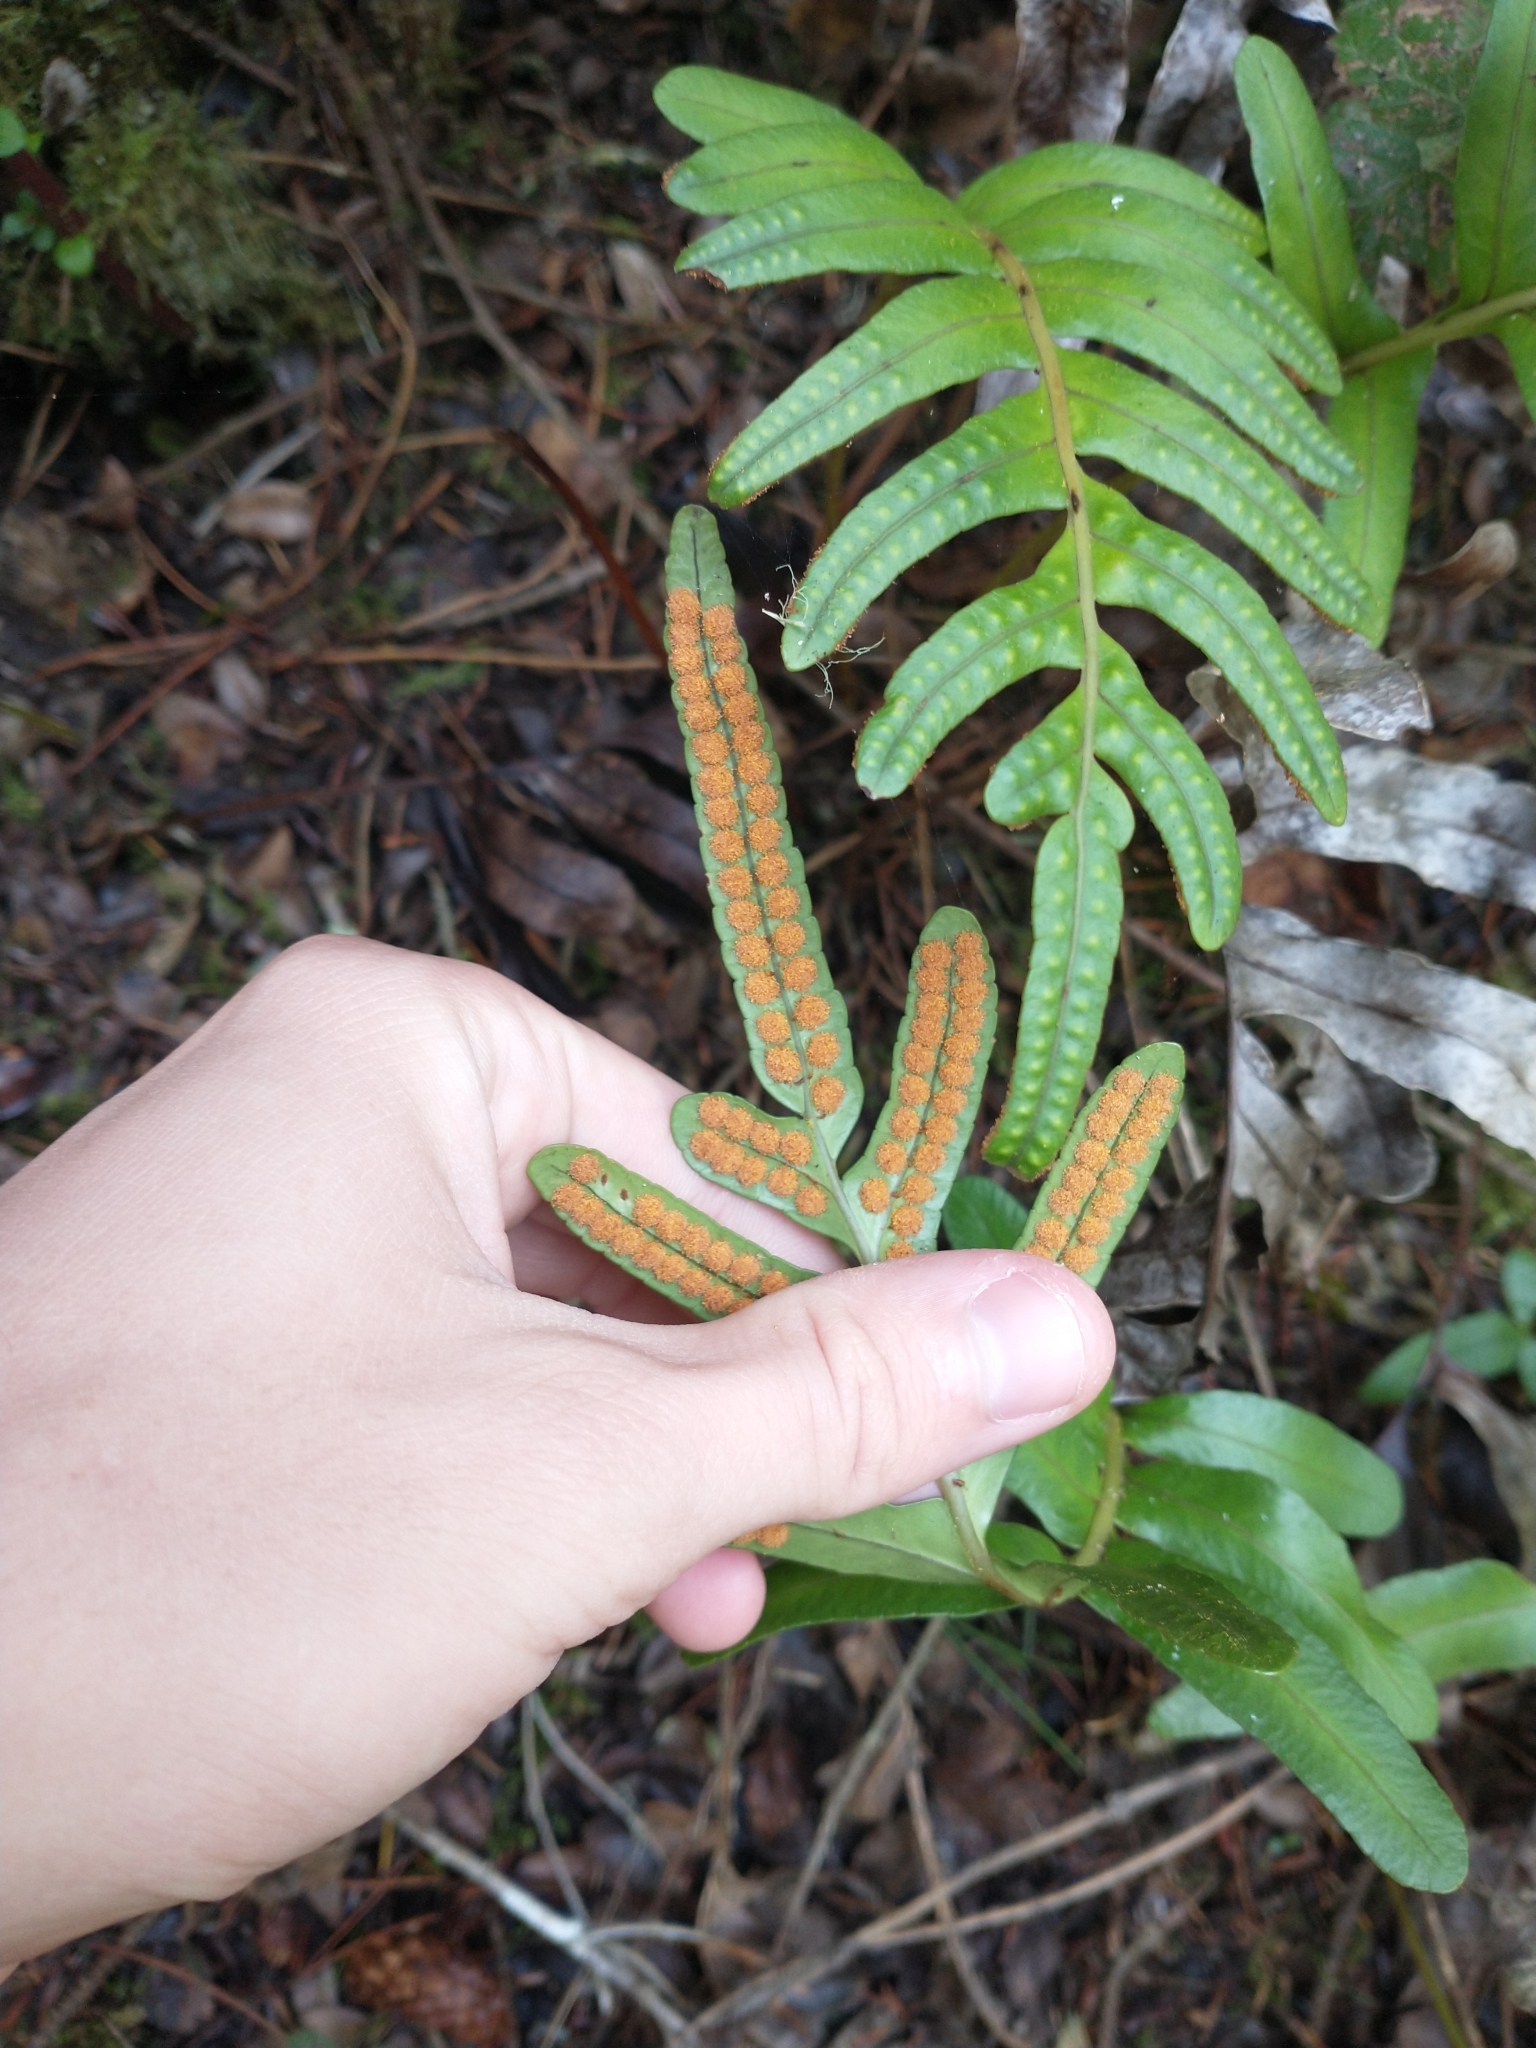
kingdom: Plantae
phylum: Tracheophyta
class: Polypodiopsida
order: Polypodiales
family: Polypodiaceae
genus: Polypodium
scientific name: Polypodium scouleri
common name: Scouler's polypody
